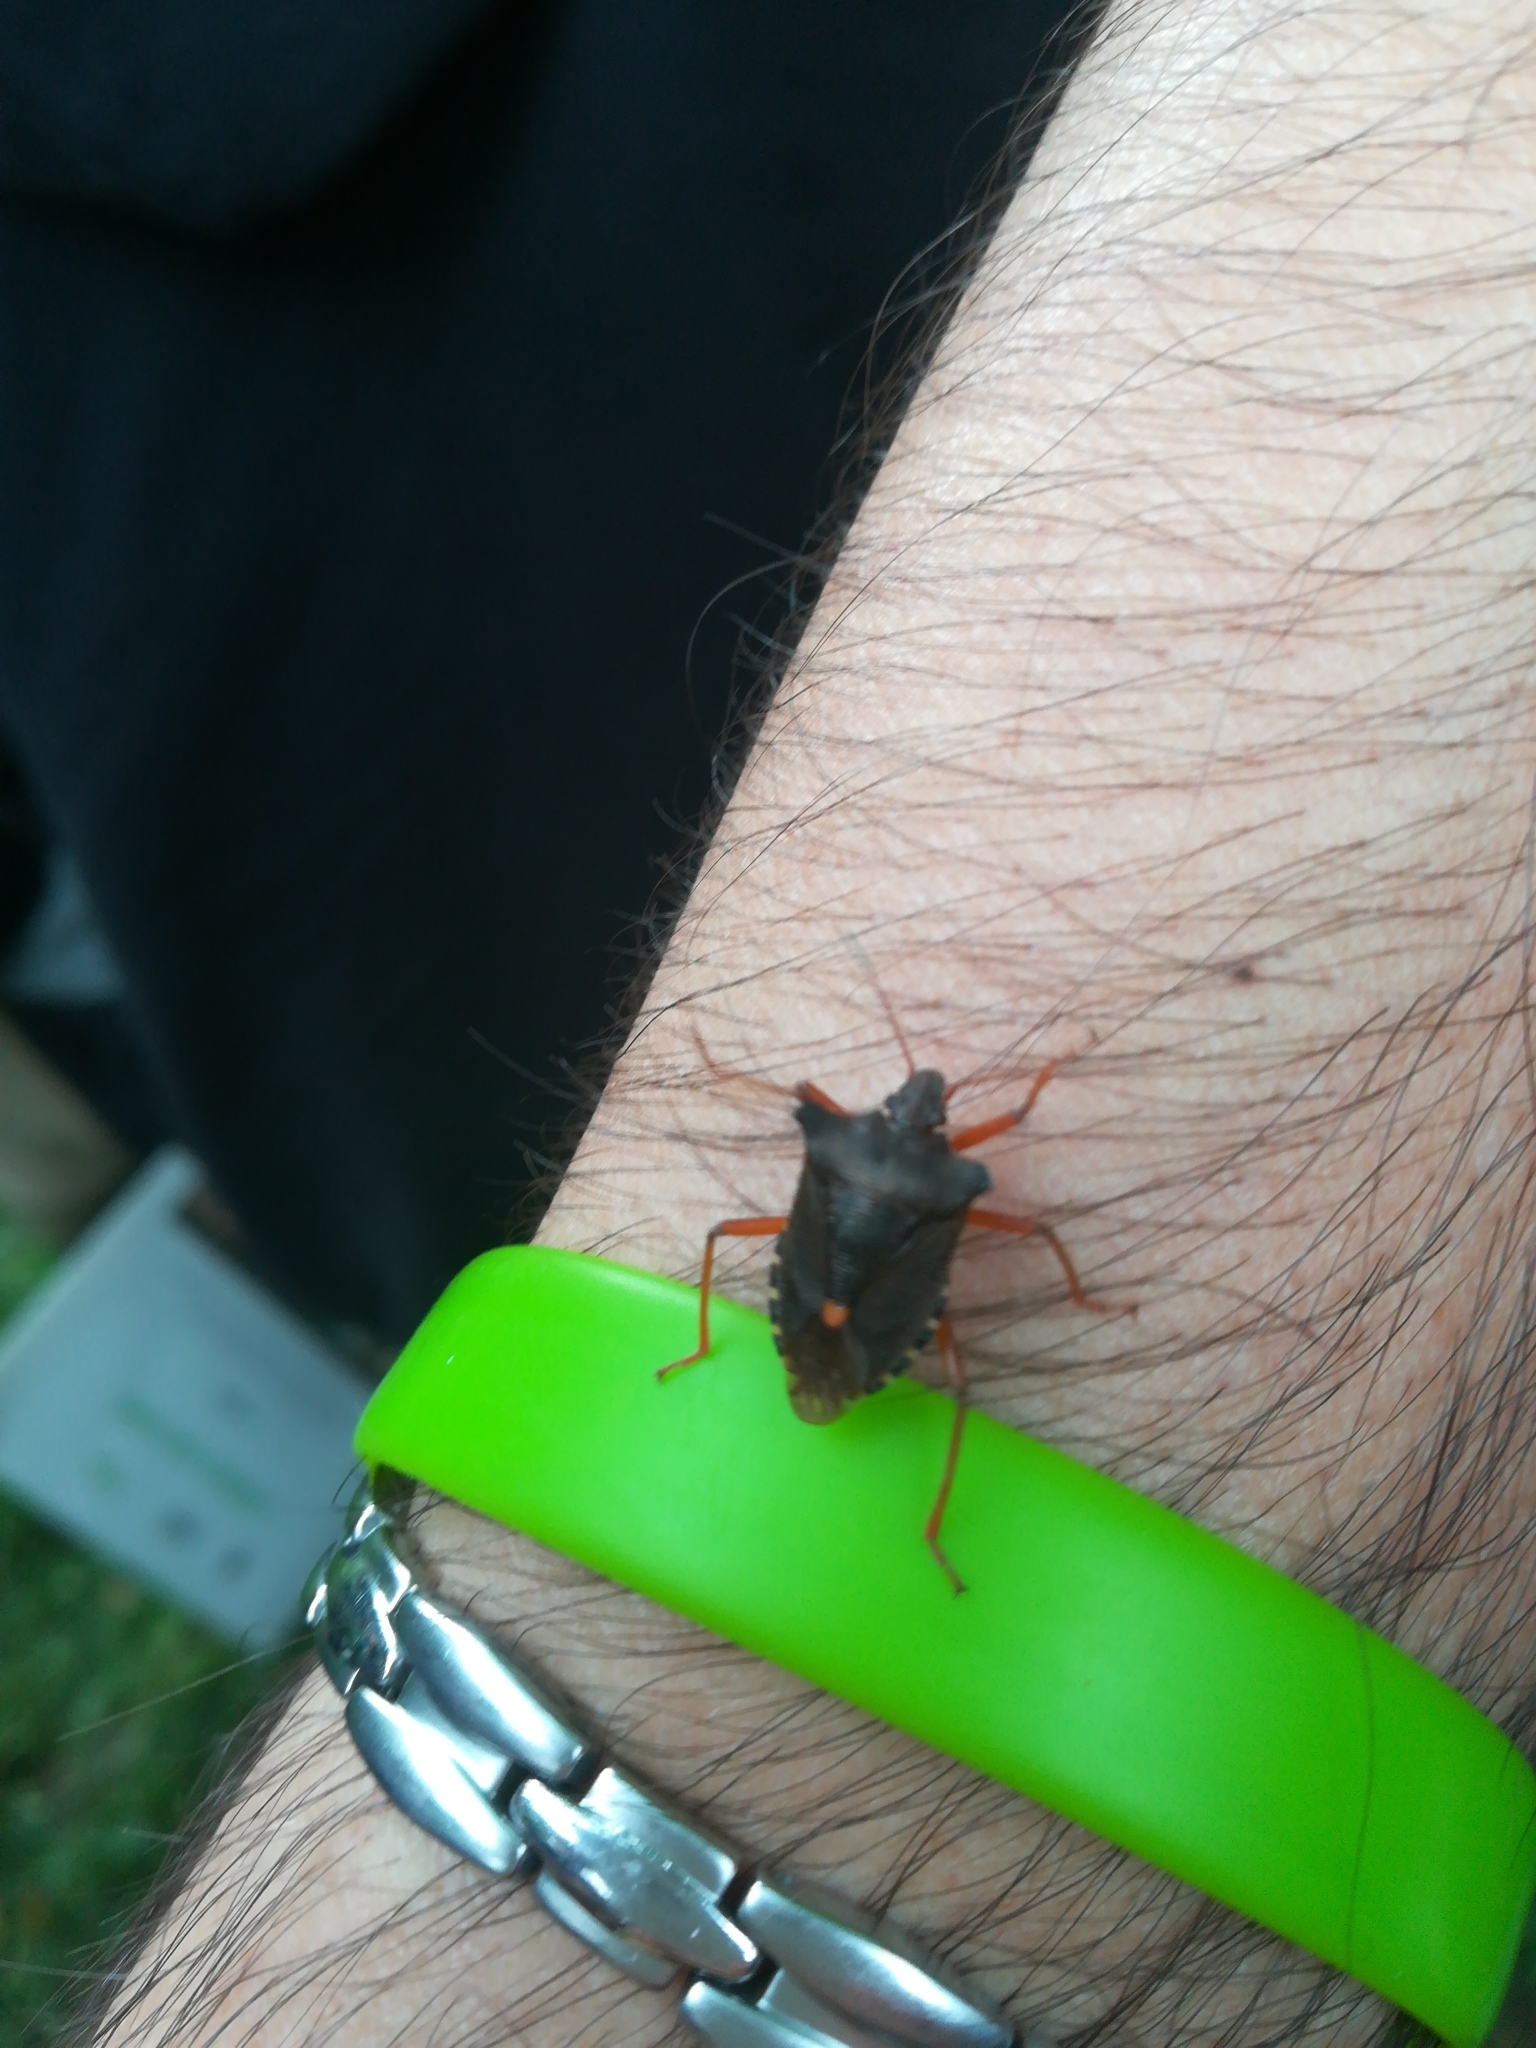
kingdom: Animalia
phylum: Arthropoda
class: Insecta
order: Hemiptera
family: Pentatomidae
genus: Pentatoma
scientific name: Pentatoma rufipes
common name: Forest bug
